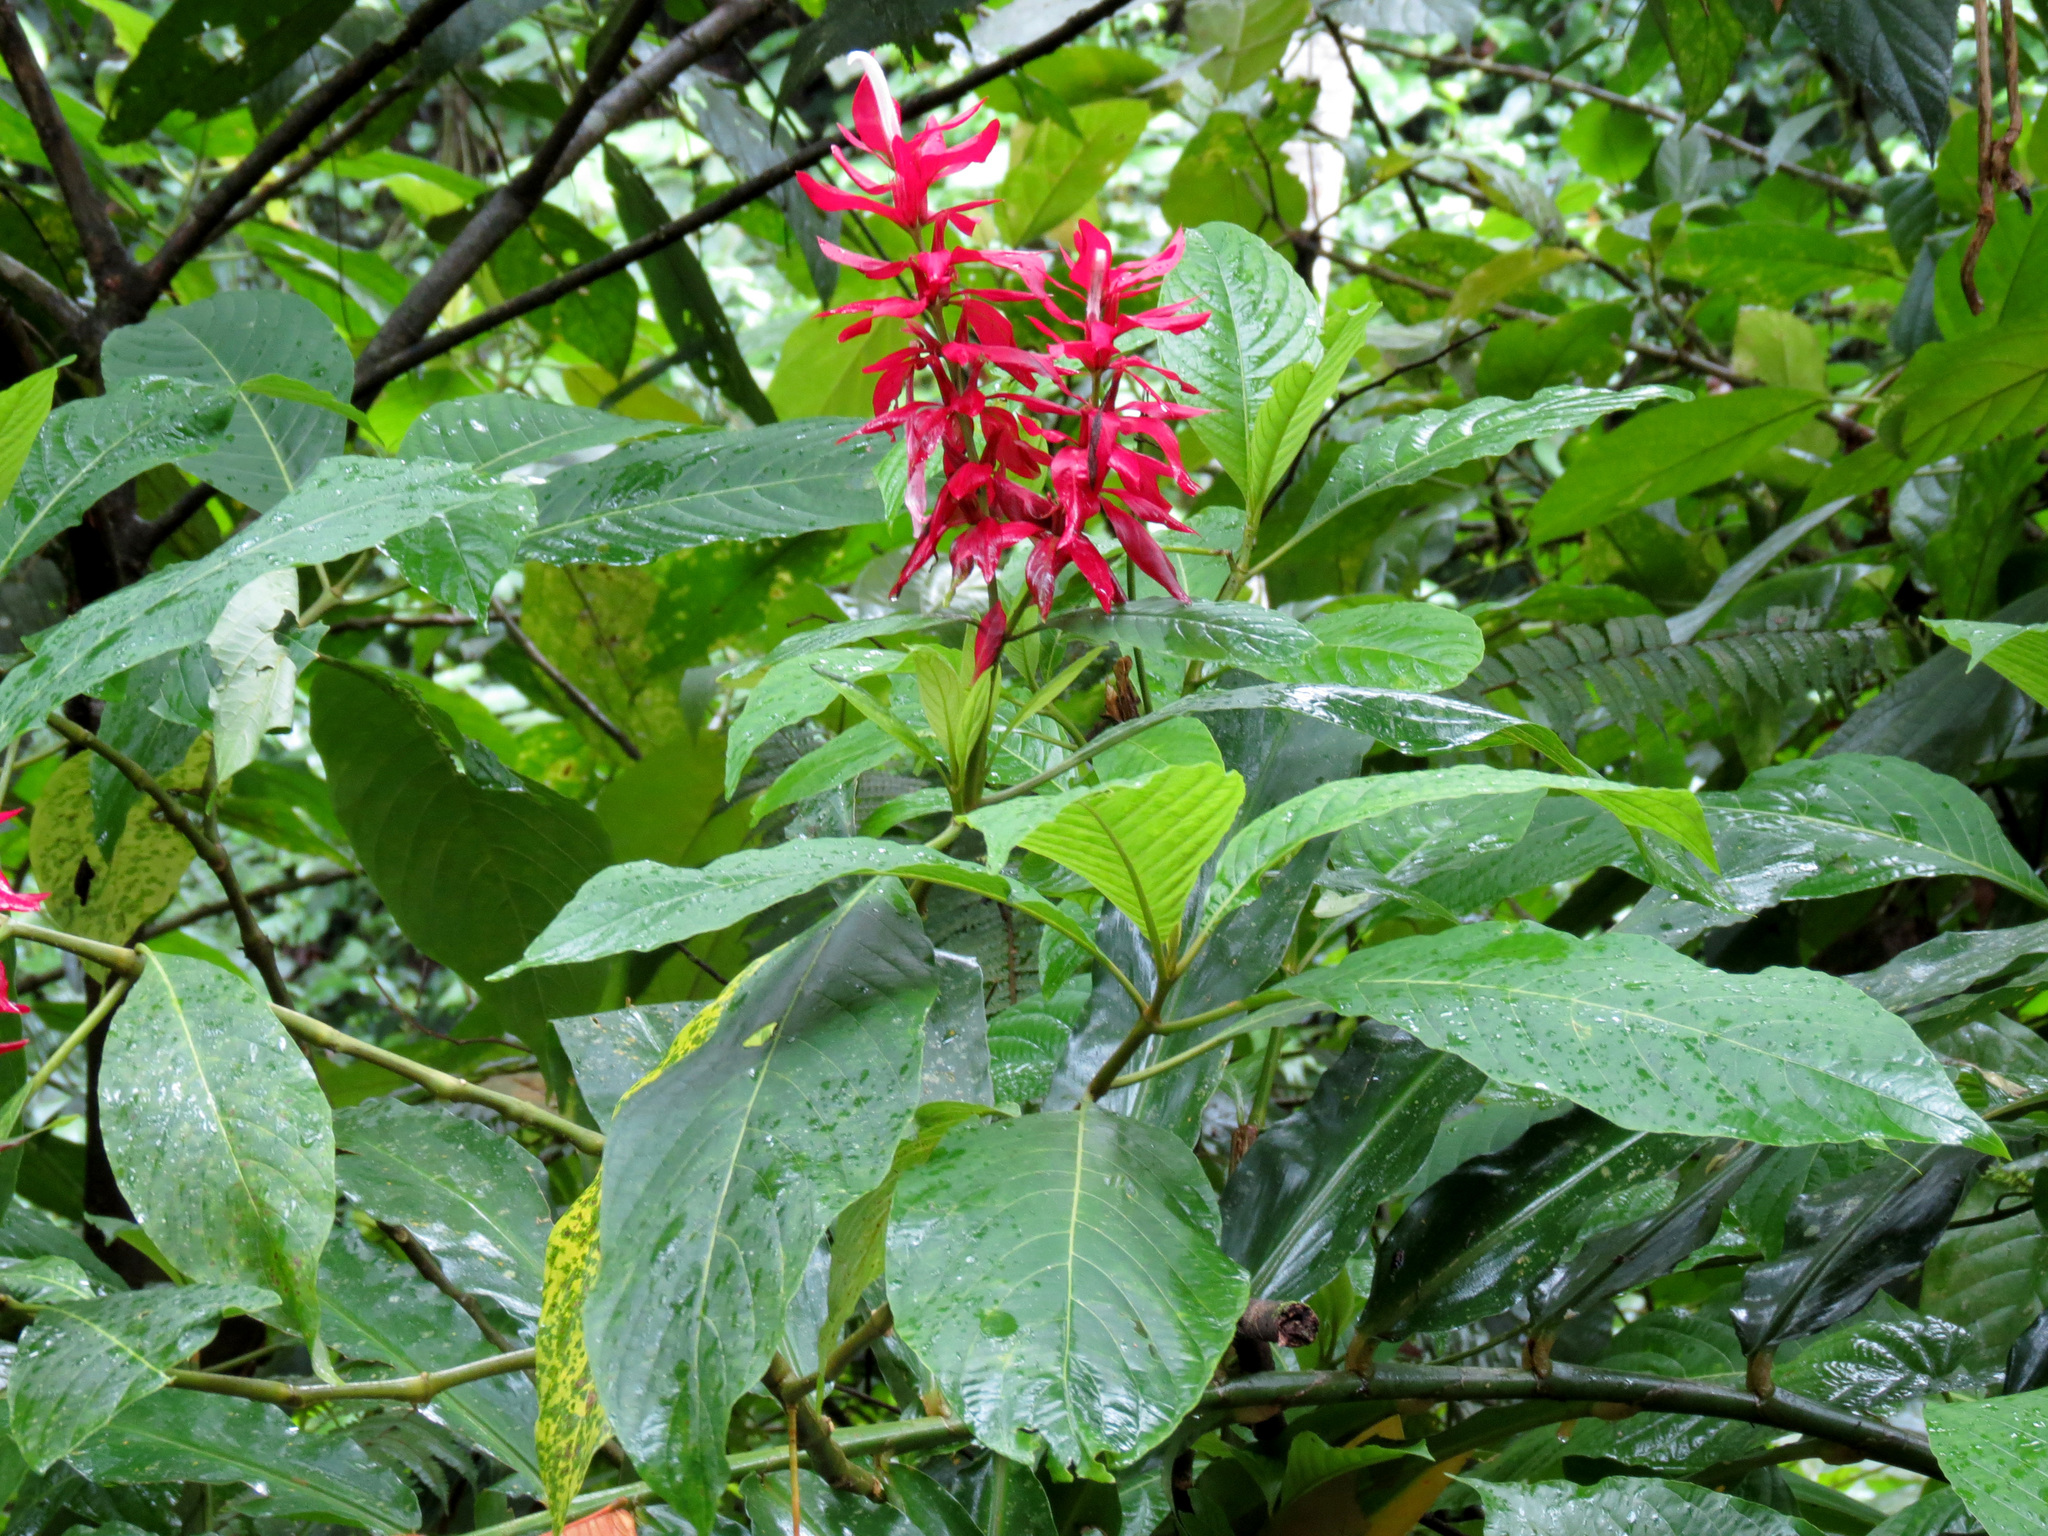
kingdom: Plantae
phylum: Tracheophyta
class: Magnoliopsida
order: Lamiales
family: Acanthaceae
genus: Megaskepasma
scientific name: Megaskepasma erythrochlamys
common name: Brazilian red-cloak
